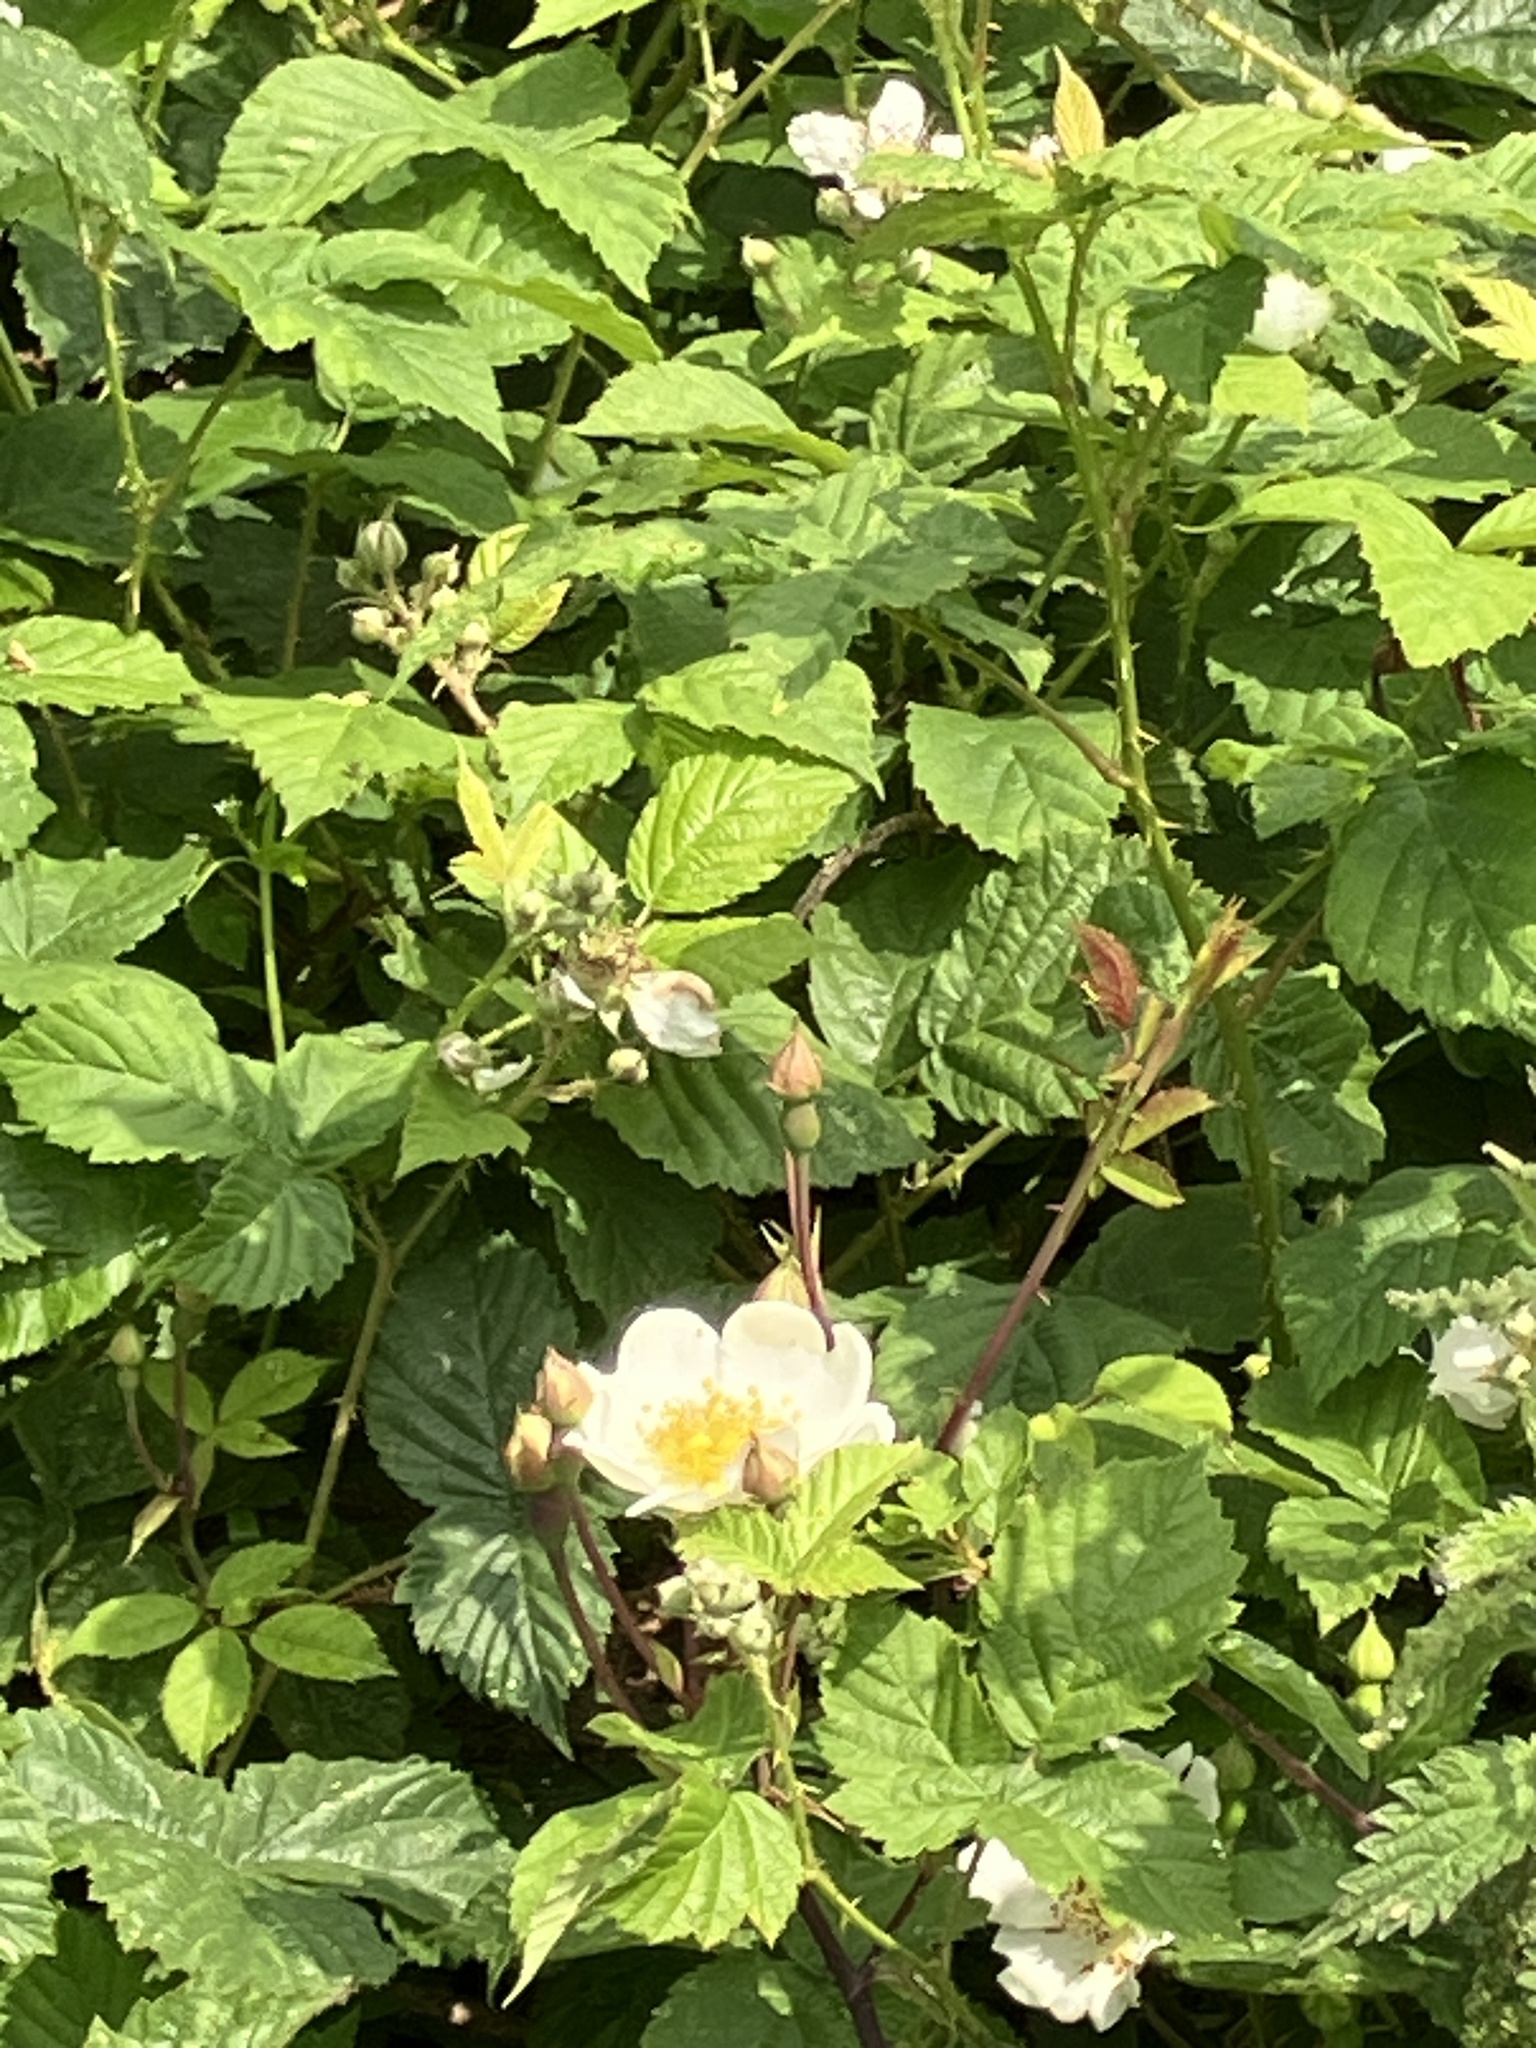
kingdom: Plantae
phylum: Tracheophyta
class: Magnoliopsida
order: Rosales
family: Rosaceae
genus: Rosa
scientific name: Rosa arvensis
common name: Field rose
